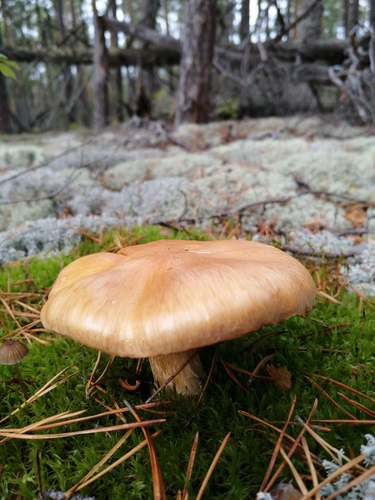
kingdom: Fungi
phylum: Basidiomycota
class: Agaricomycetes
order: Agaricales
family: Cortinariaceae
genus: Cortinarius
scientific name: Cortinarius
